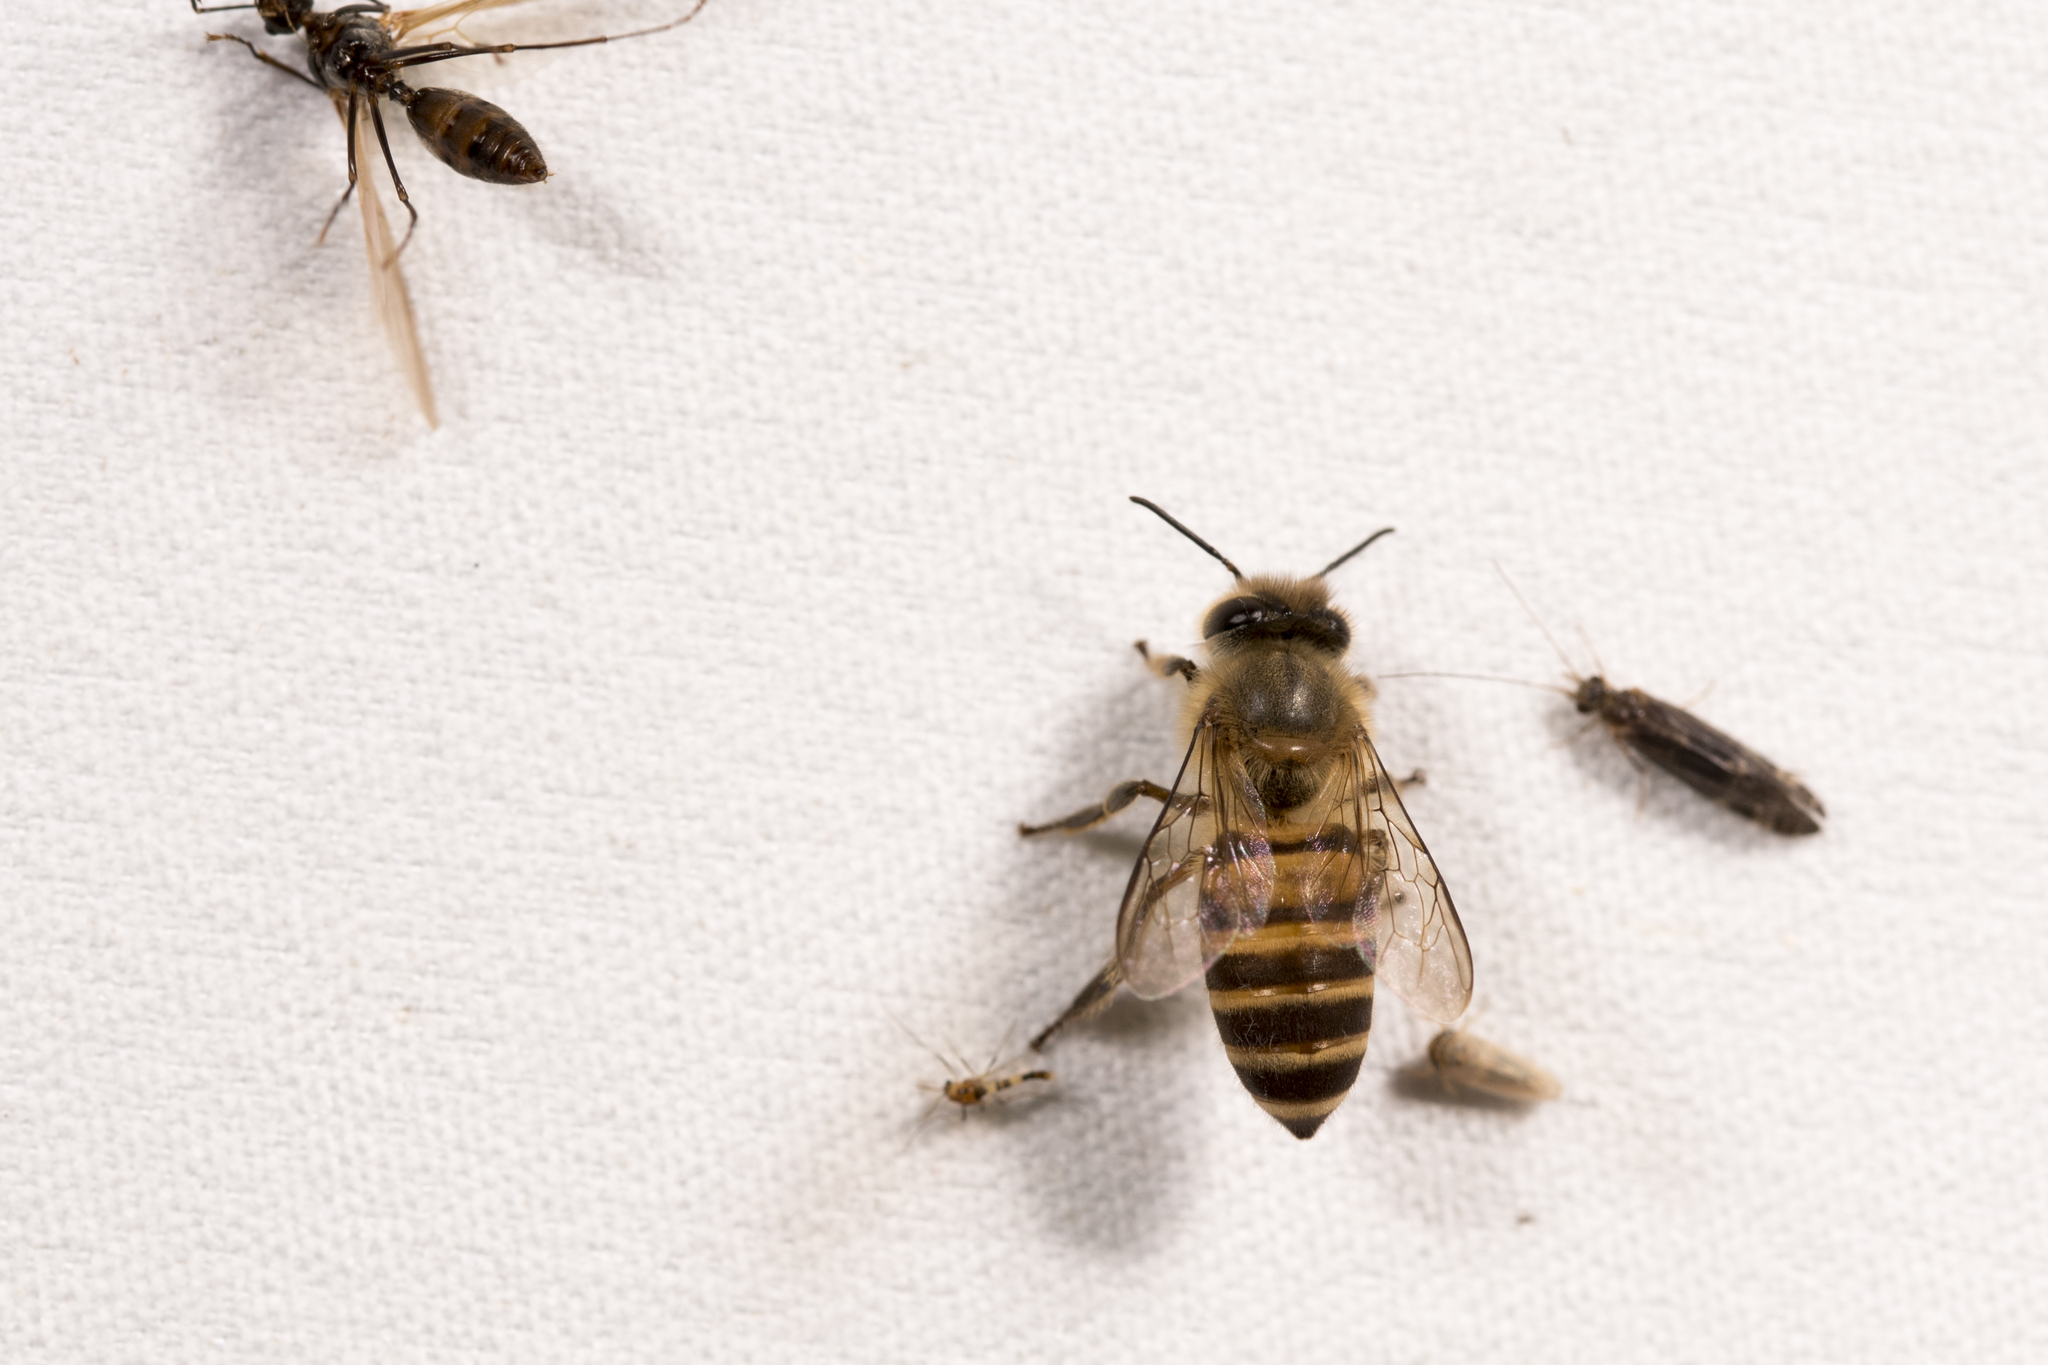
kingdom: Animalia
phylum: Arthropoda
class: Insecta
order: Hymenoptera
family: Apidae
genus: Apis
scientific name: Apis cerana
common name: Honey bee
